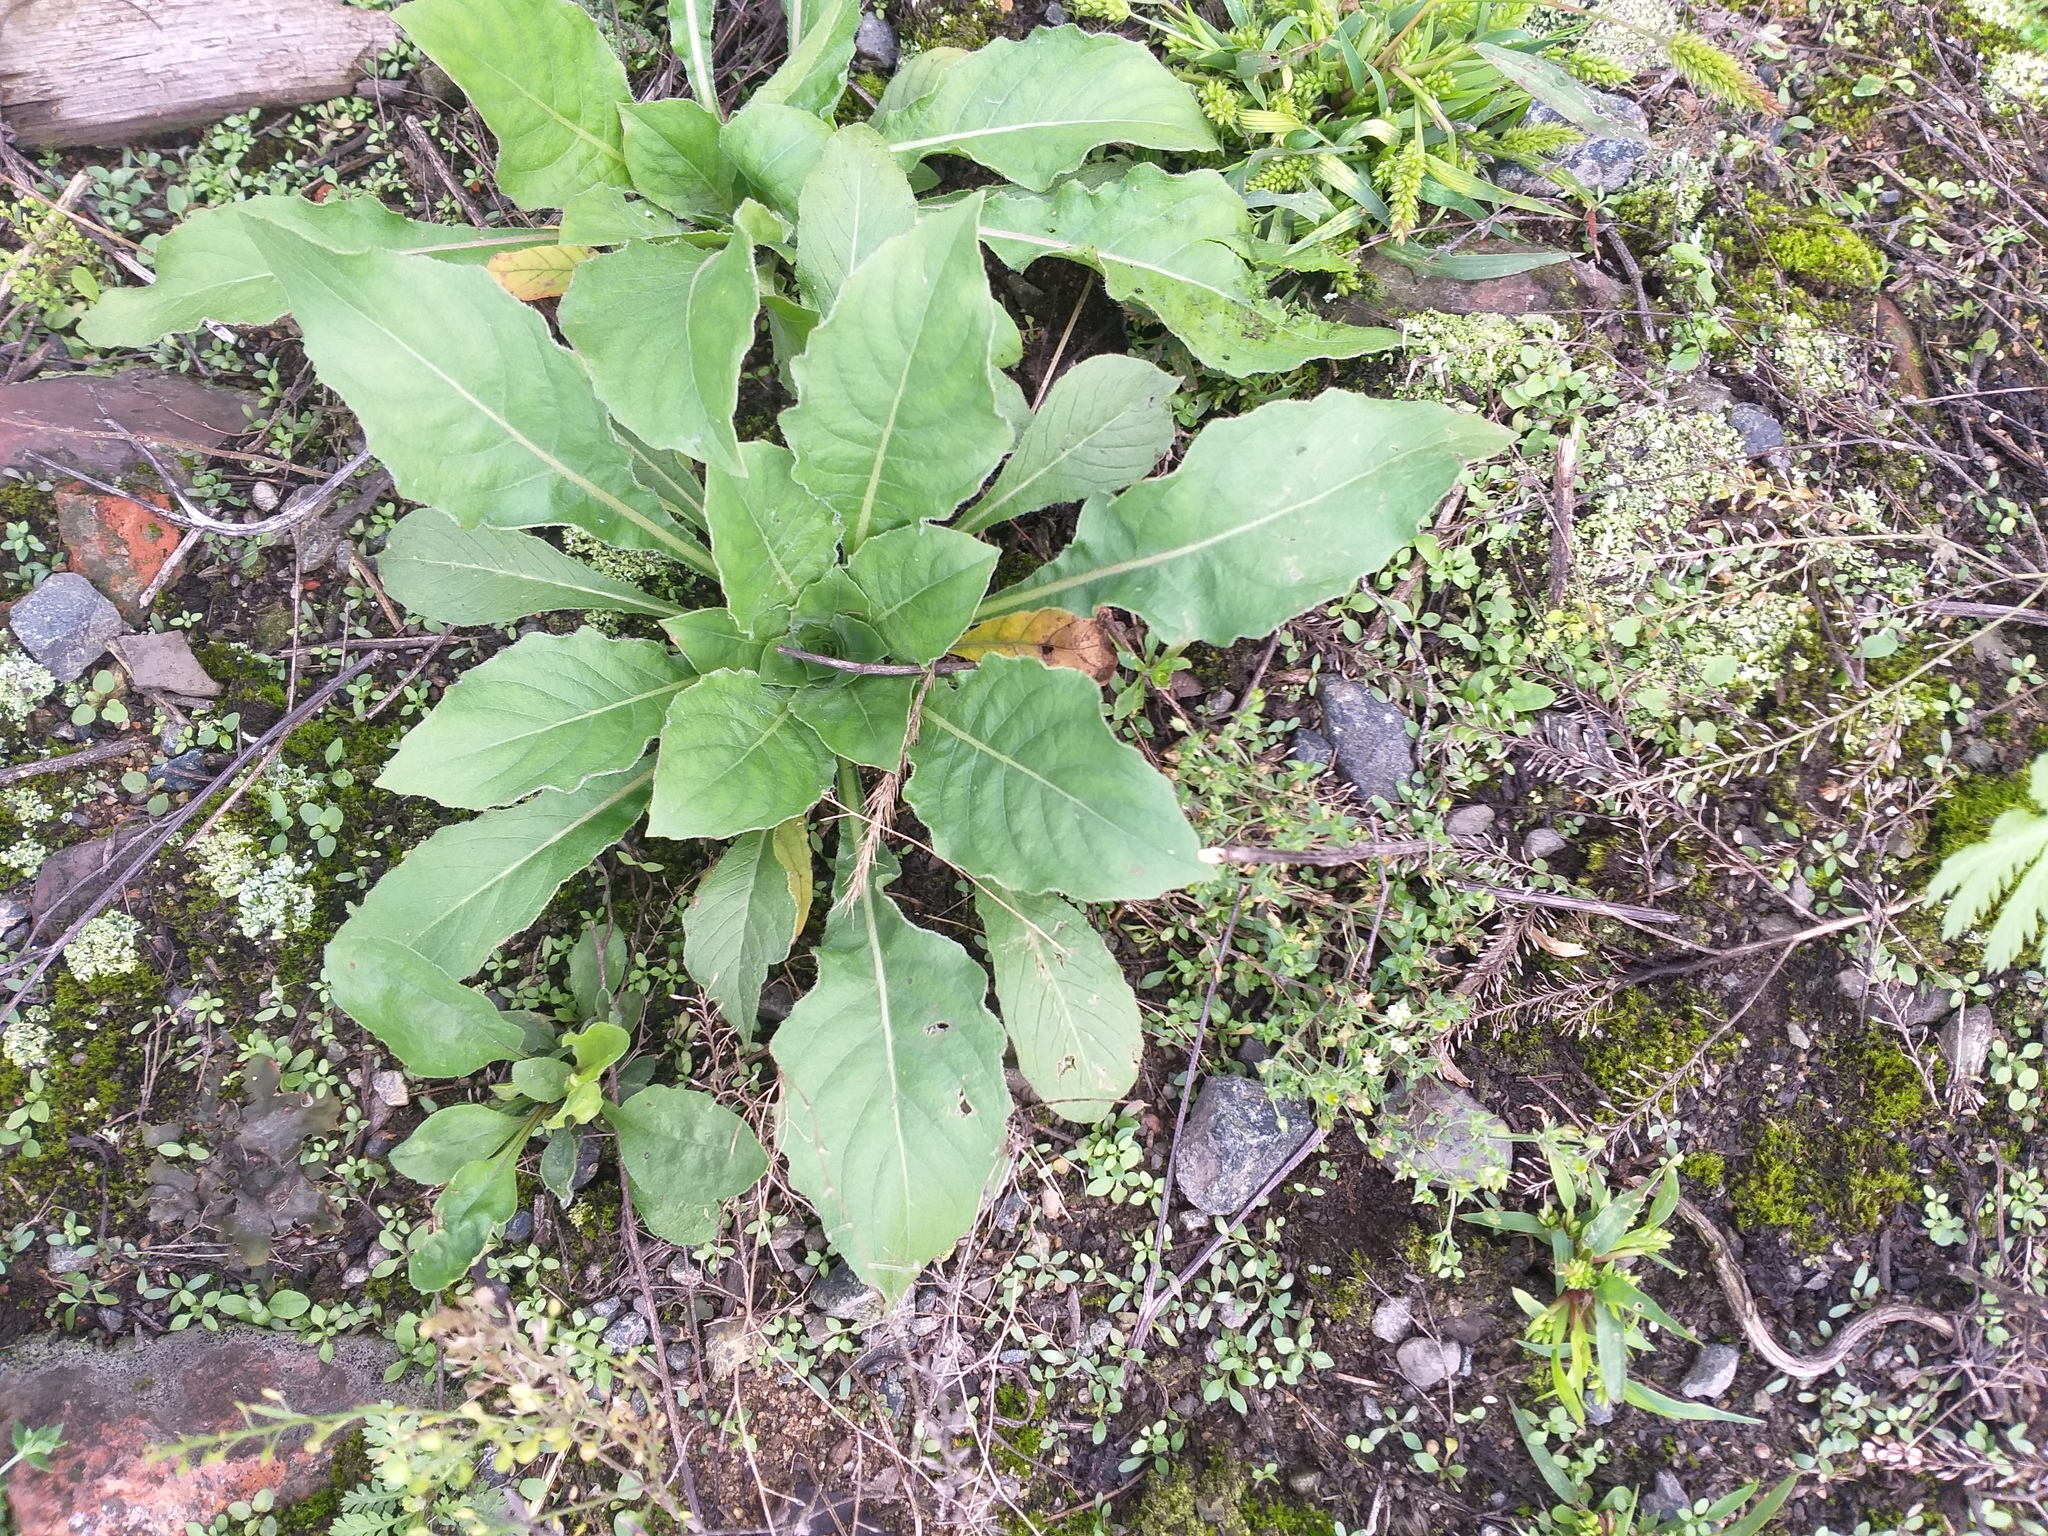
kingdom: Plantae
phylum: Tracheophyta
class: Magnoliopsida
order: Myrtales
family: Onagraceae
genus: Oenothera
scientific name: Oenothera rubricaulis
